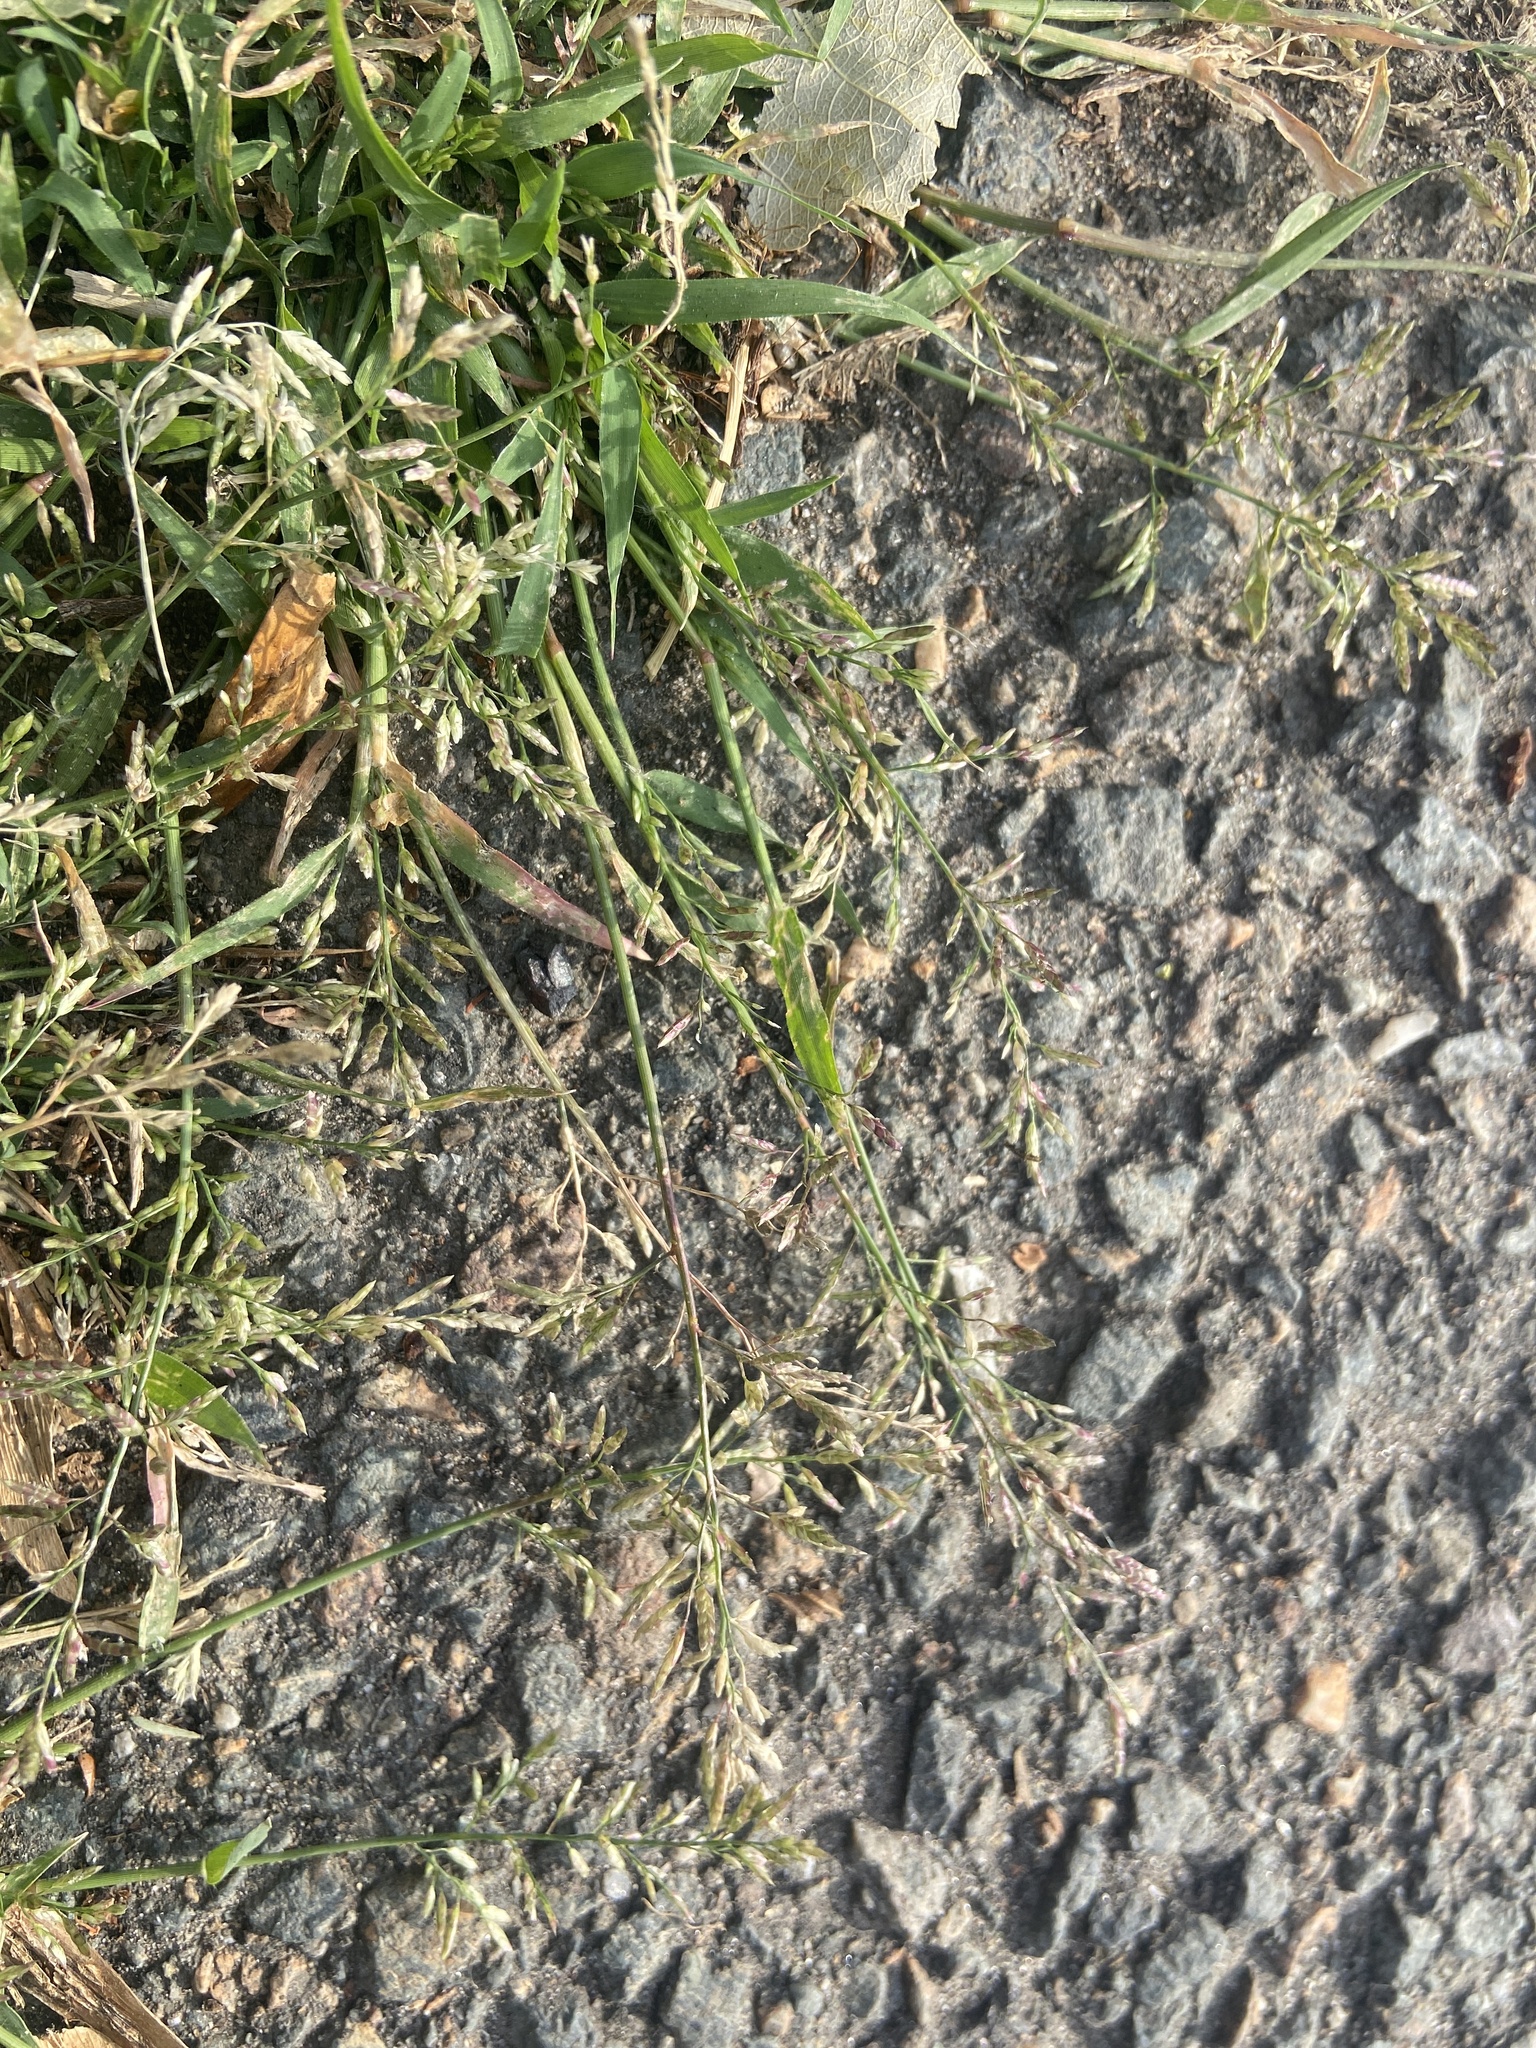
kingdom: Plantae
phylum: Tracheophyta
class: Liliopsida
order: Poales
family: Poaceae
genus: Eragrostis
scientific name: Eragrostis minor
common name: Small love-grass
